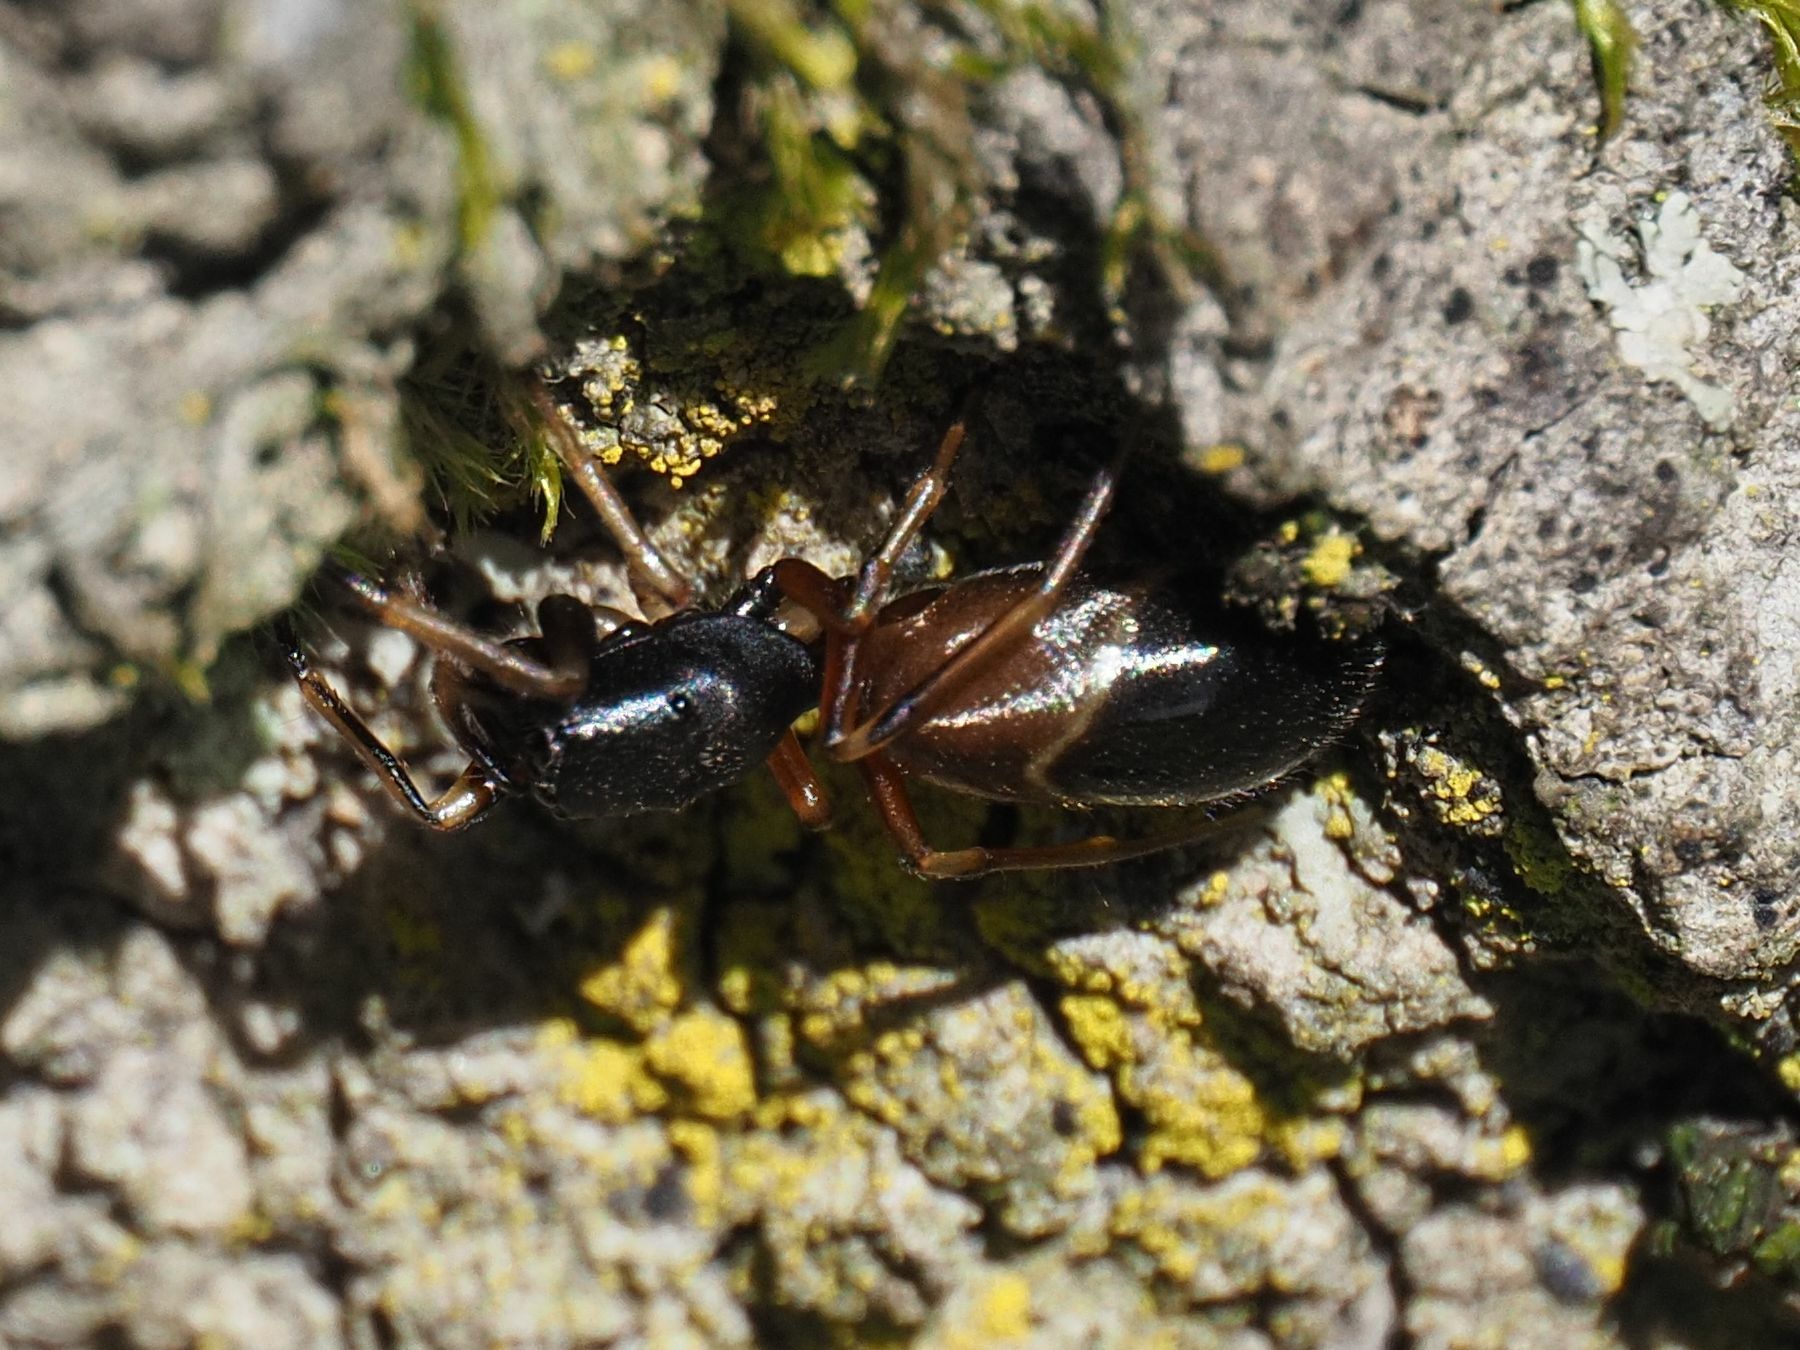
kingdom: Animalia
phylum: Arthropoda
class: Arachnida
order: Araneae
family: Salticidae
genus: Leptorchestes
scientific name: Leptorchestes berolinensis
